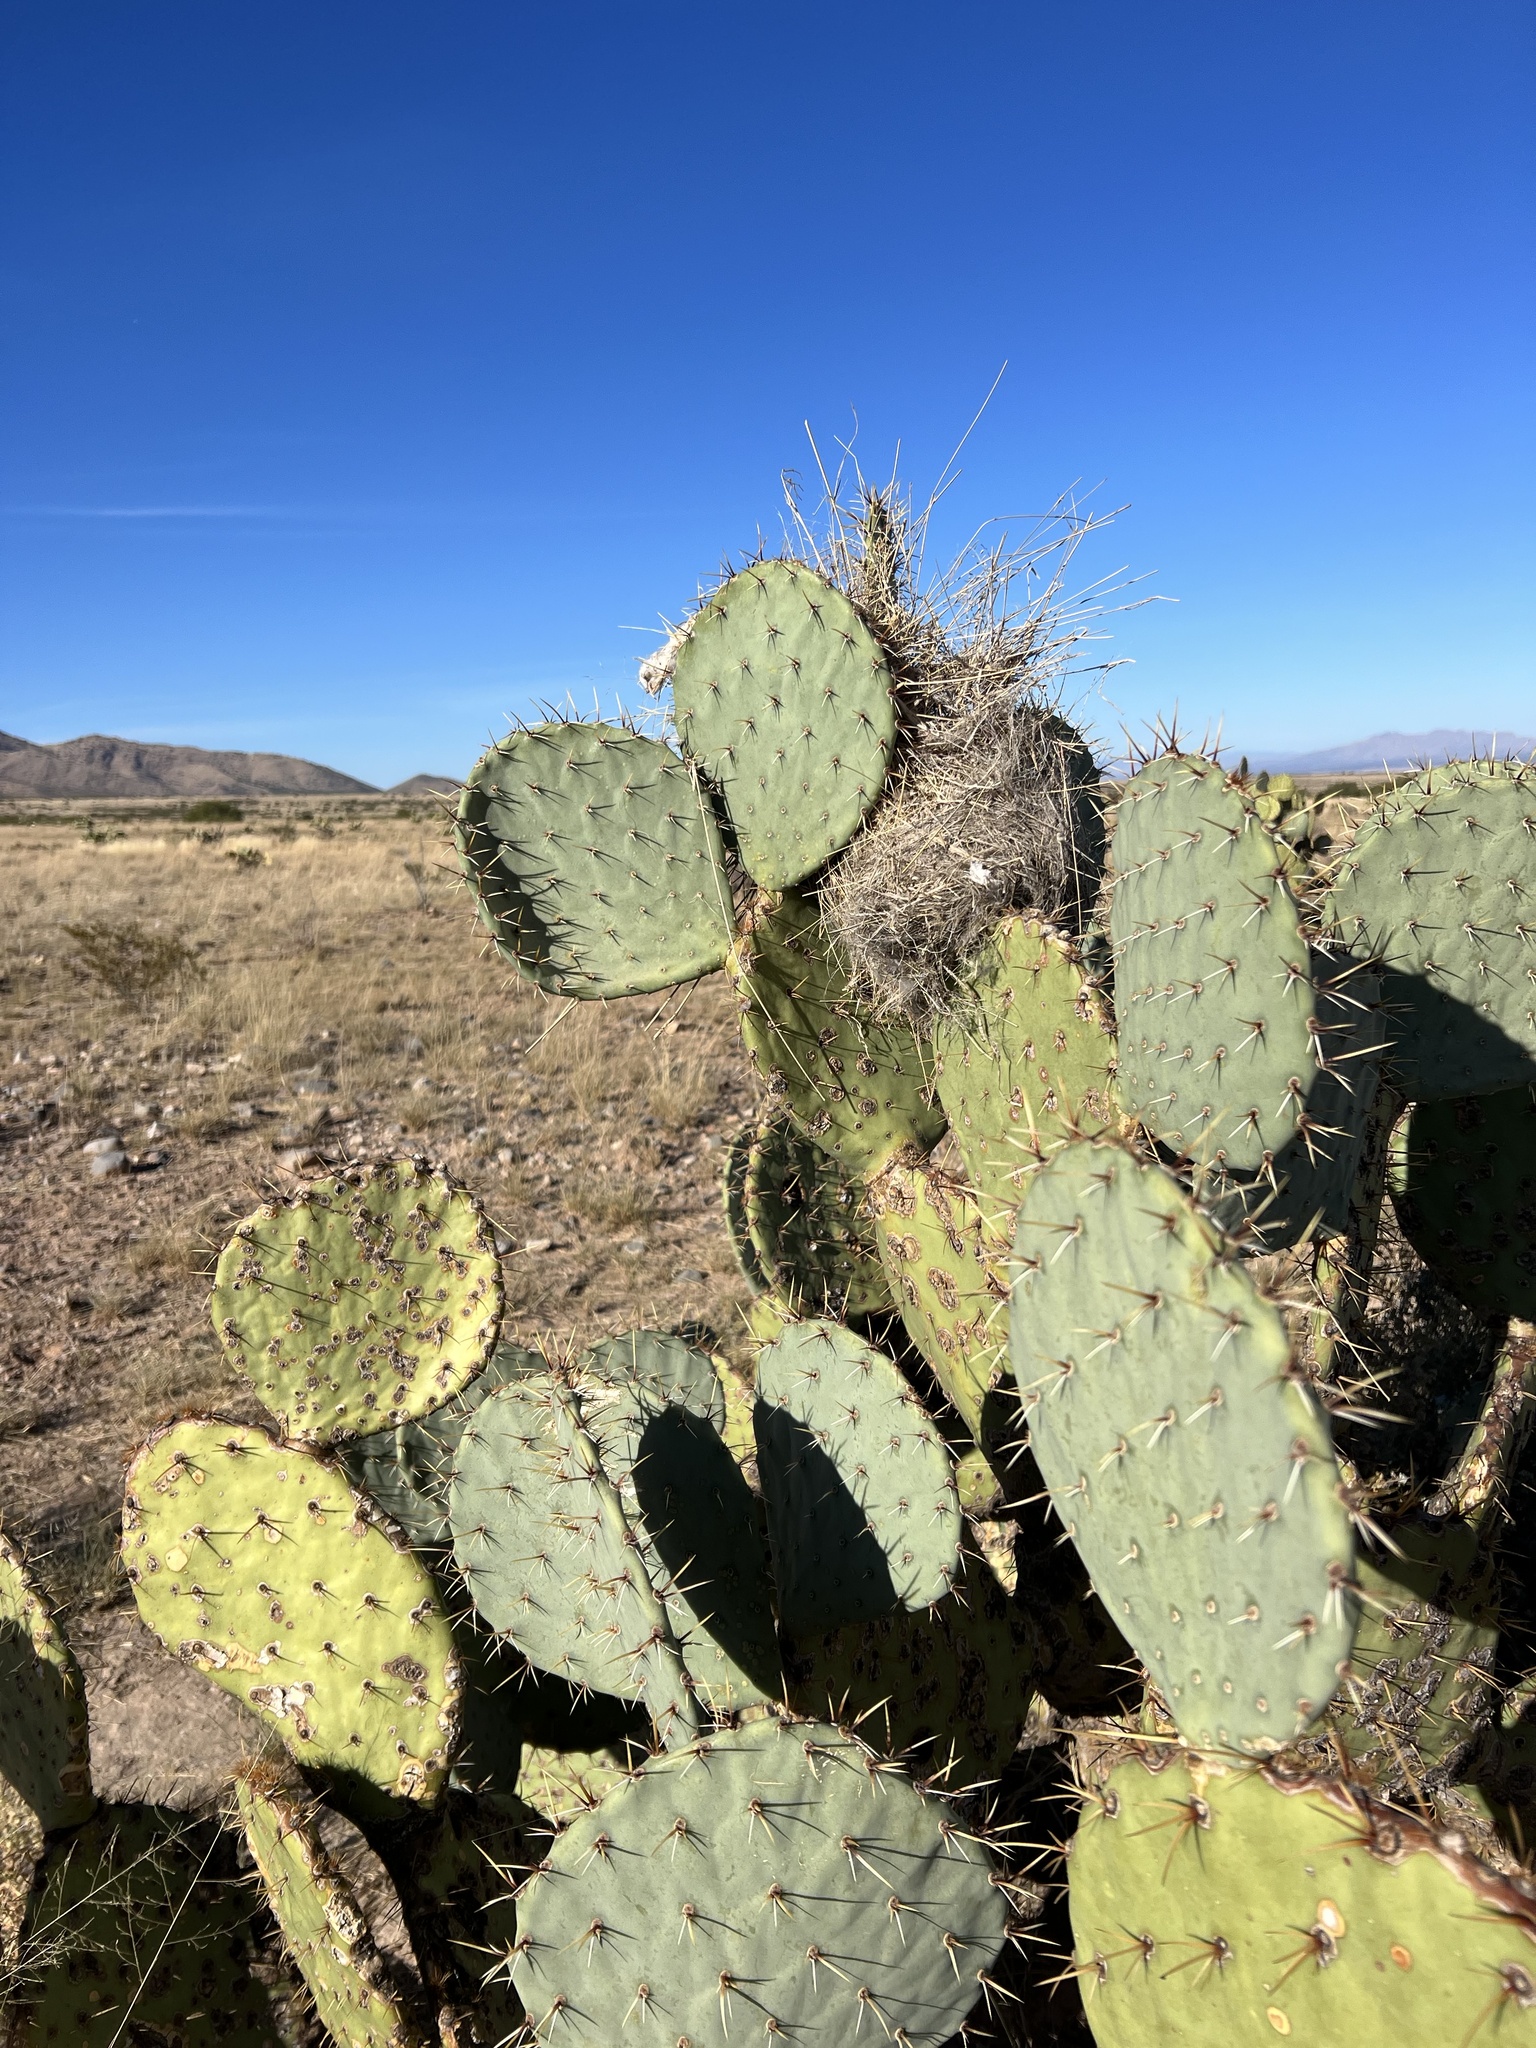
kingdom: Plantae
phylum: Tracheophyta
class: Magnoliopsida
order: Caryophyllales
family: Cactaceae
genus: Opuntia
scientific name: Opuntia engelmannii
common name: Cactus-apple
